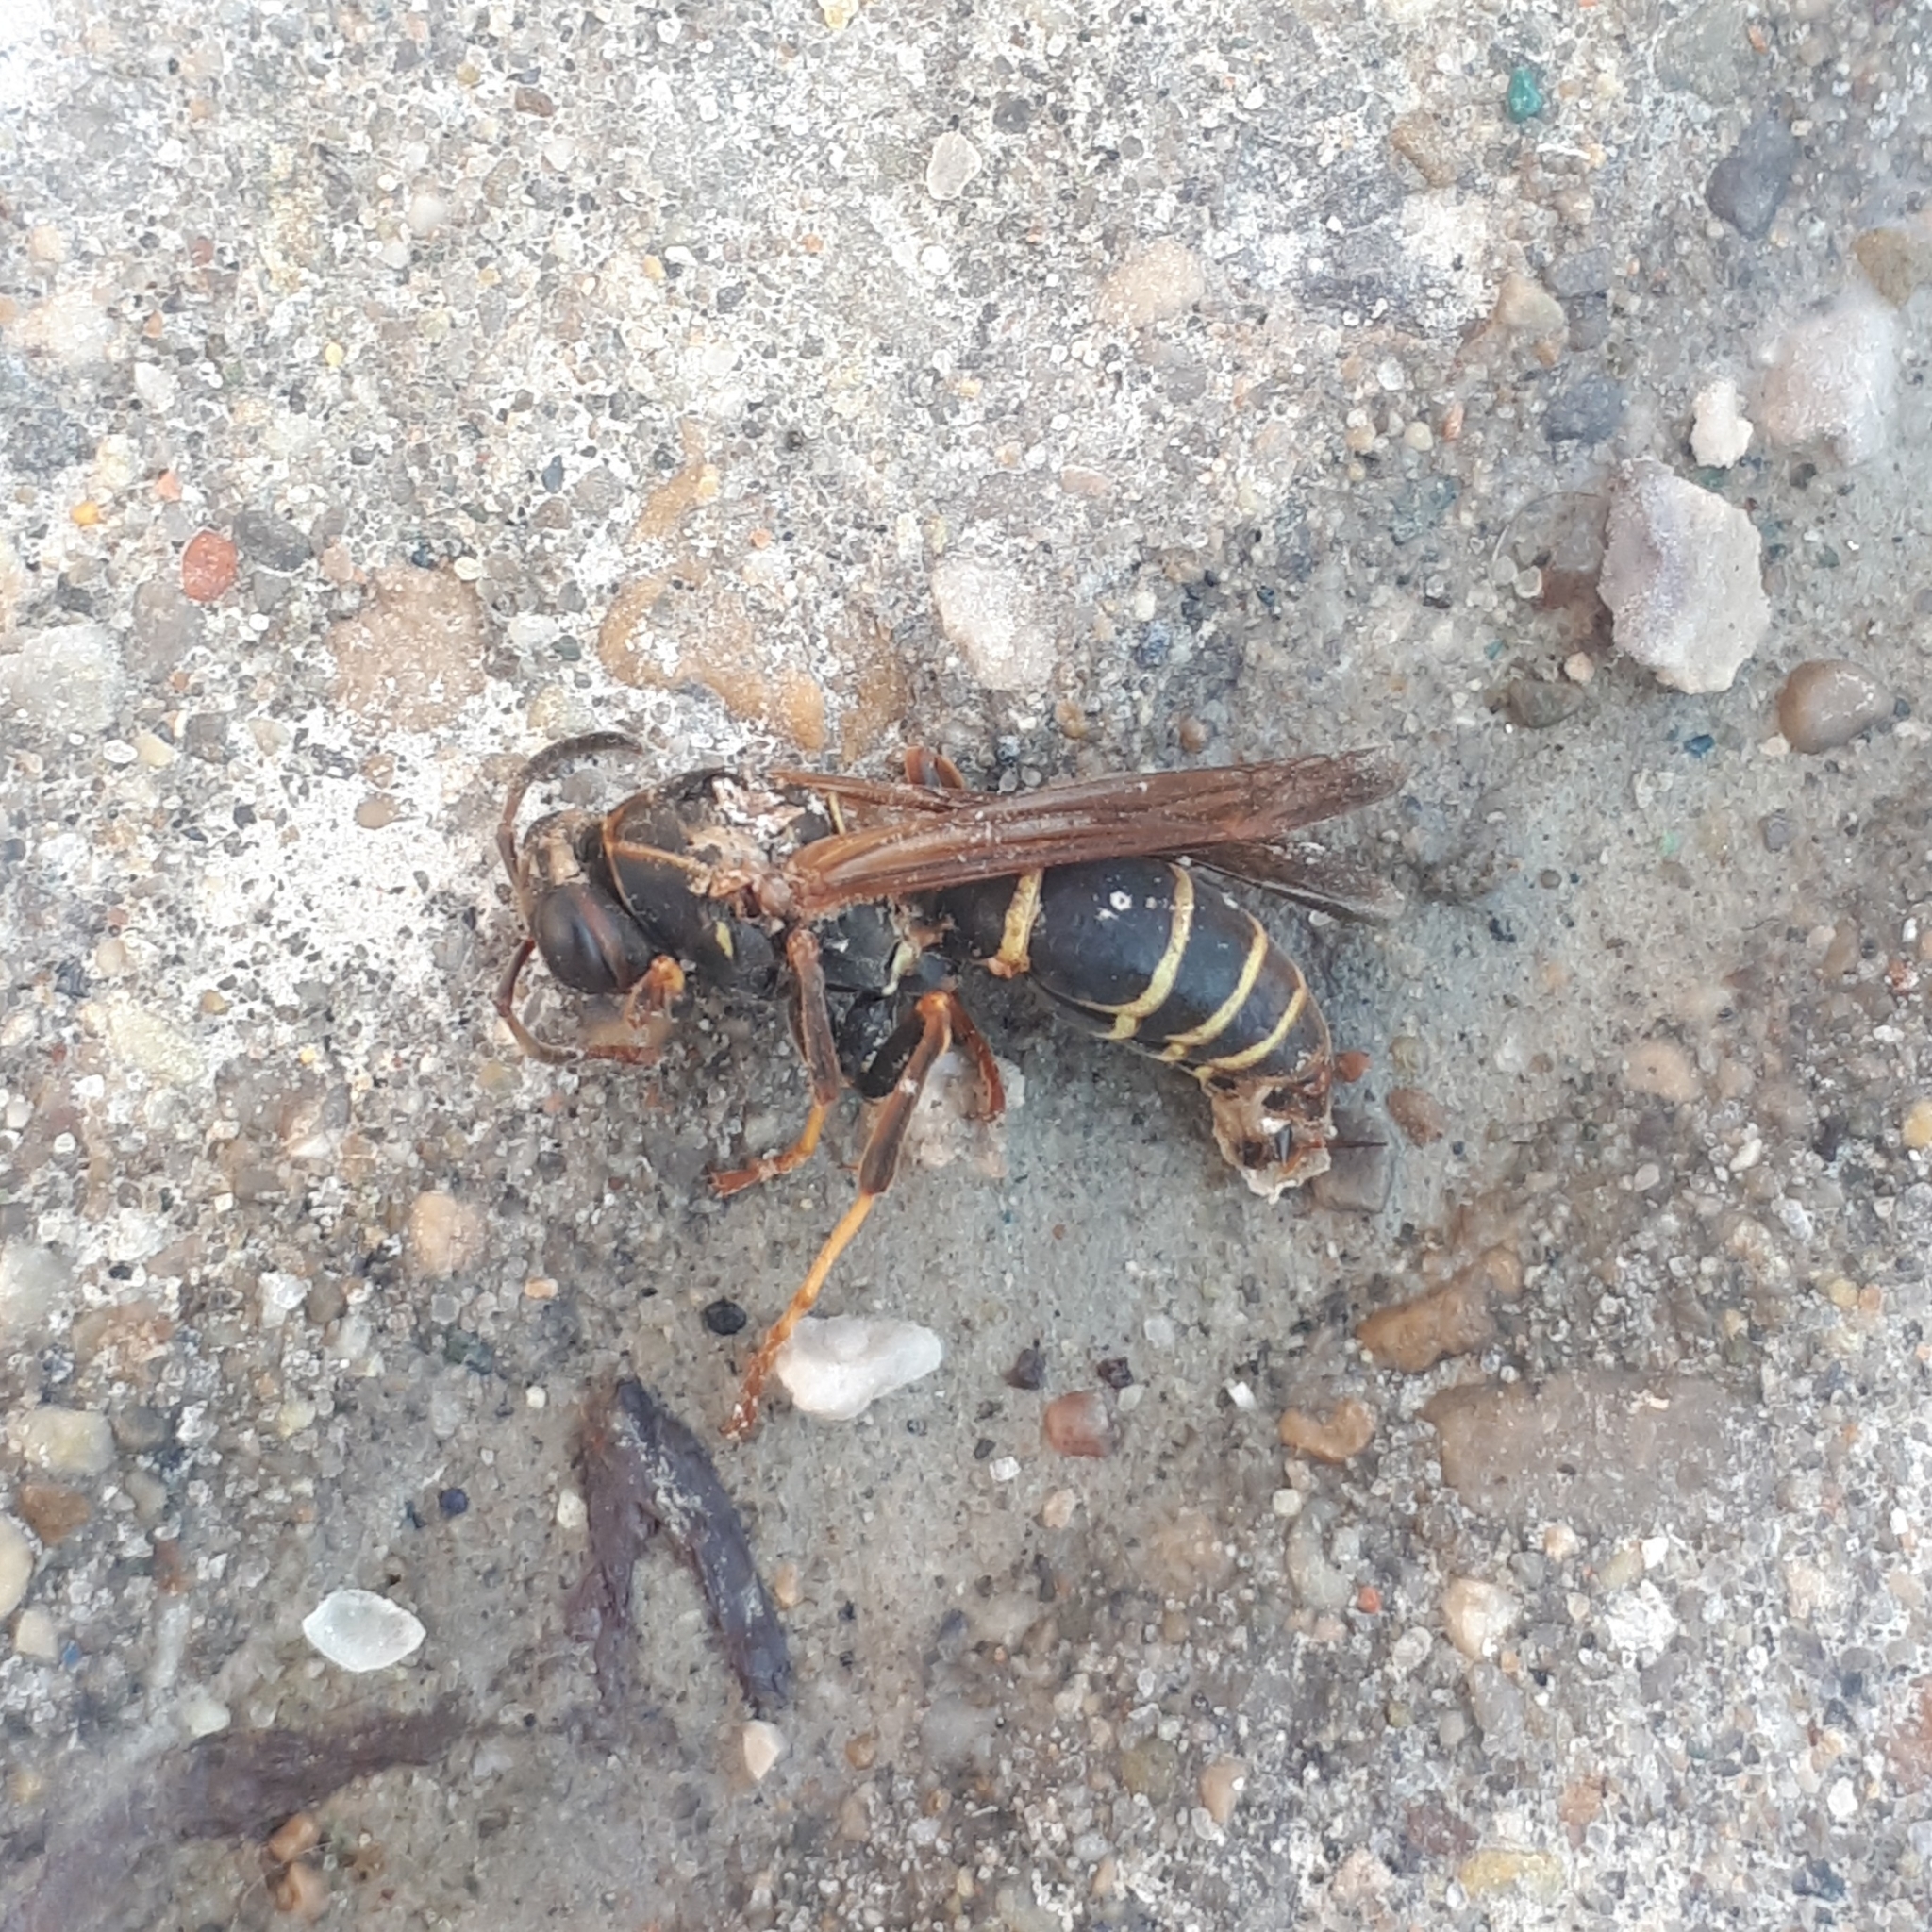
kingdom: Animalia
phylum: Arthropoda
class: Insecta
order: Hymenoptera
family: Eumenidae
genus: Polistes
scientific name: Polistes fuscatus
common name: Dark paper wasp
